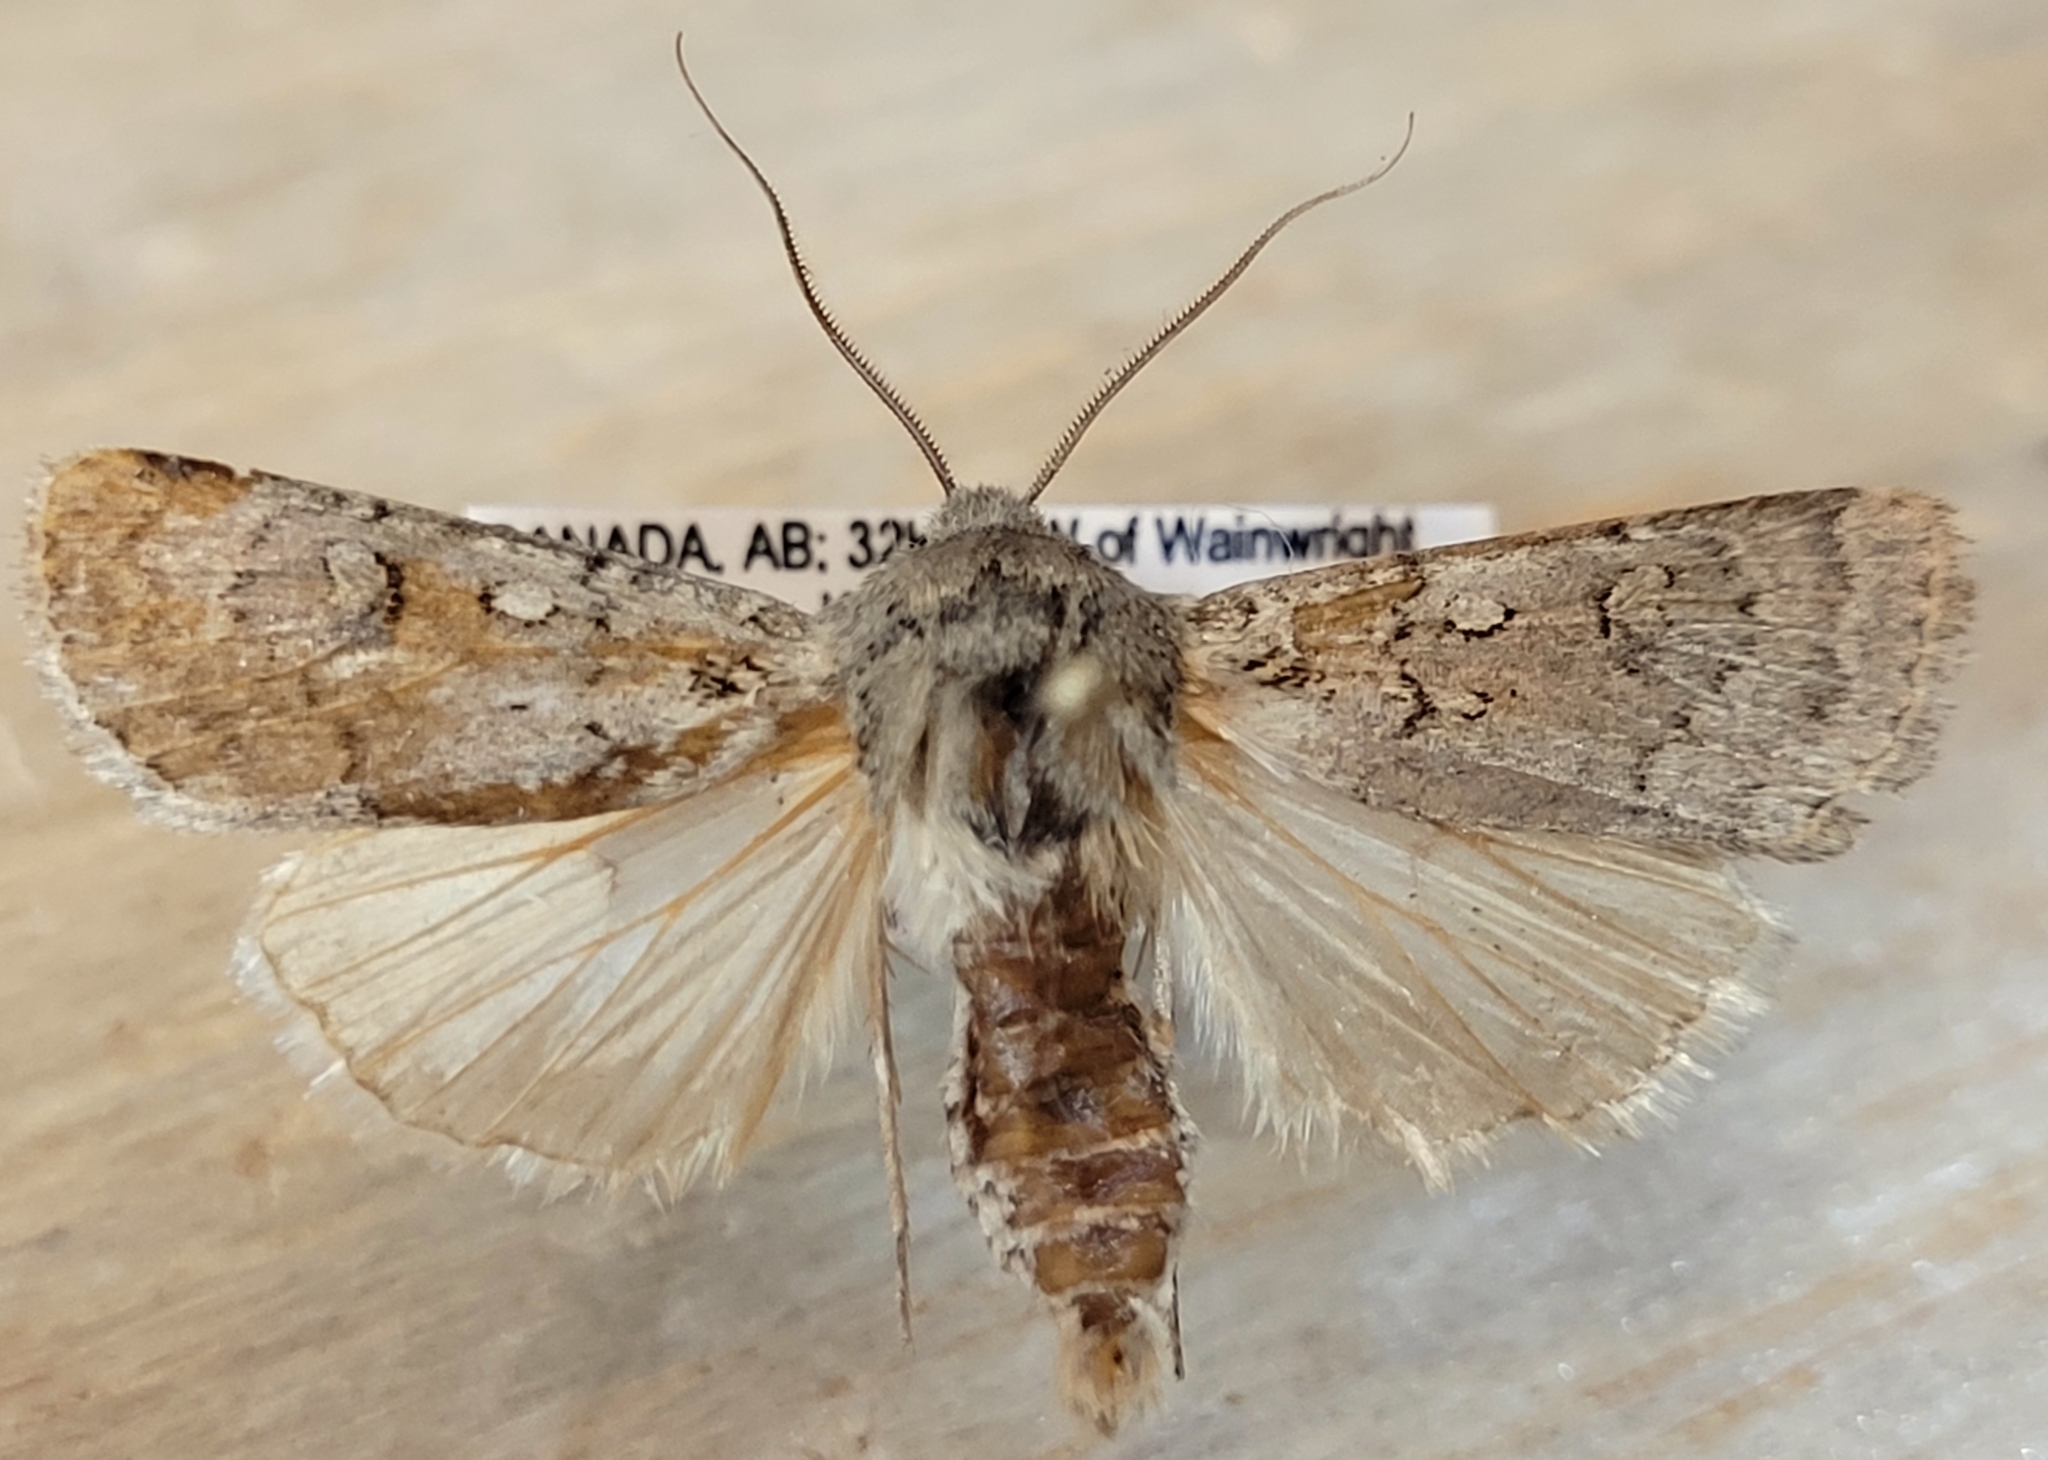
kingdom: Animalia
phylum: Arthropoda
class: Insecta
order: Lepidoptera
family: Noctuidae
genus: Euxoa
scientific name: Euxoa clausa
